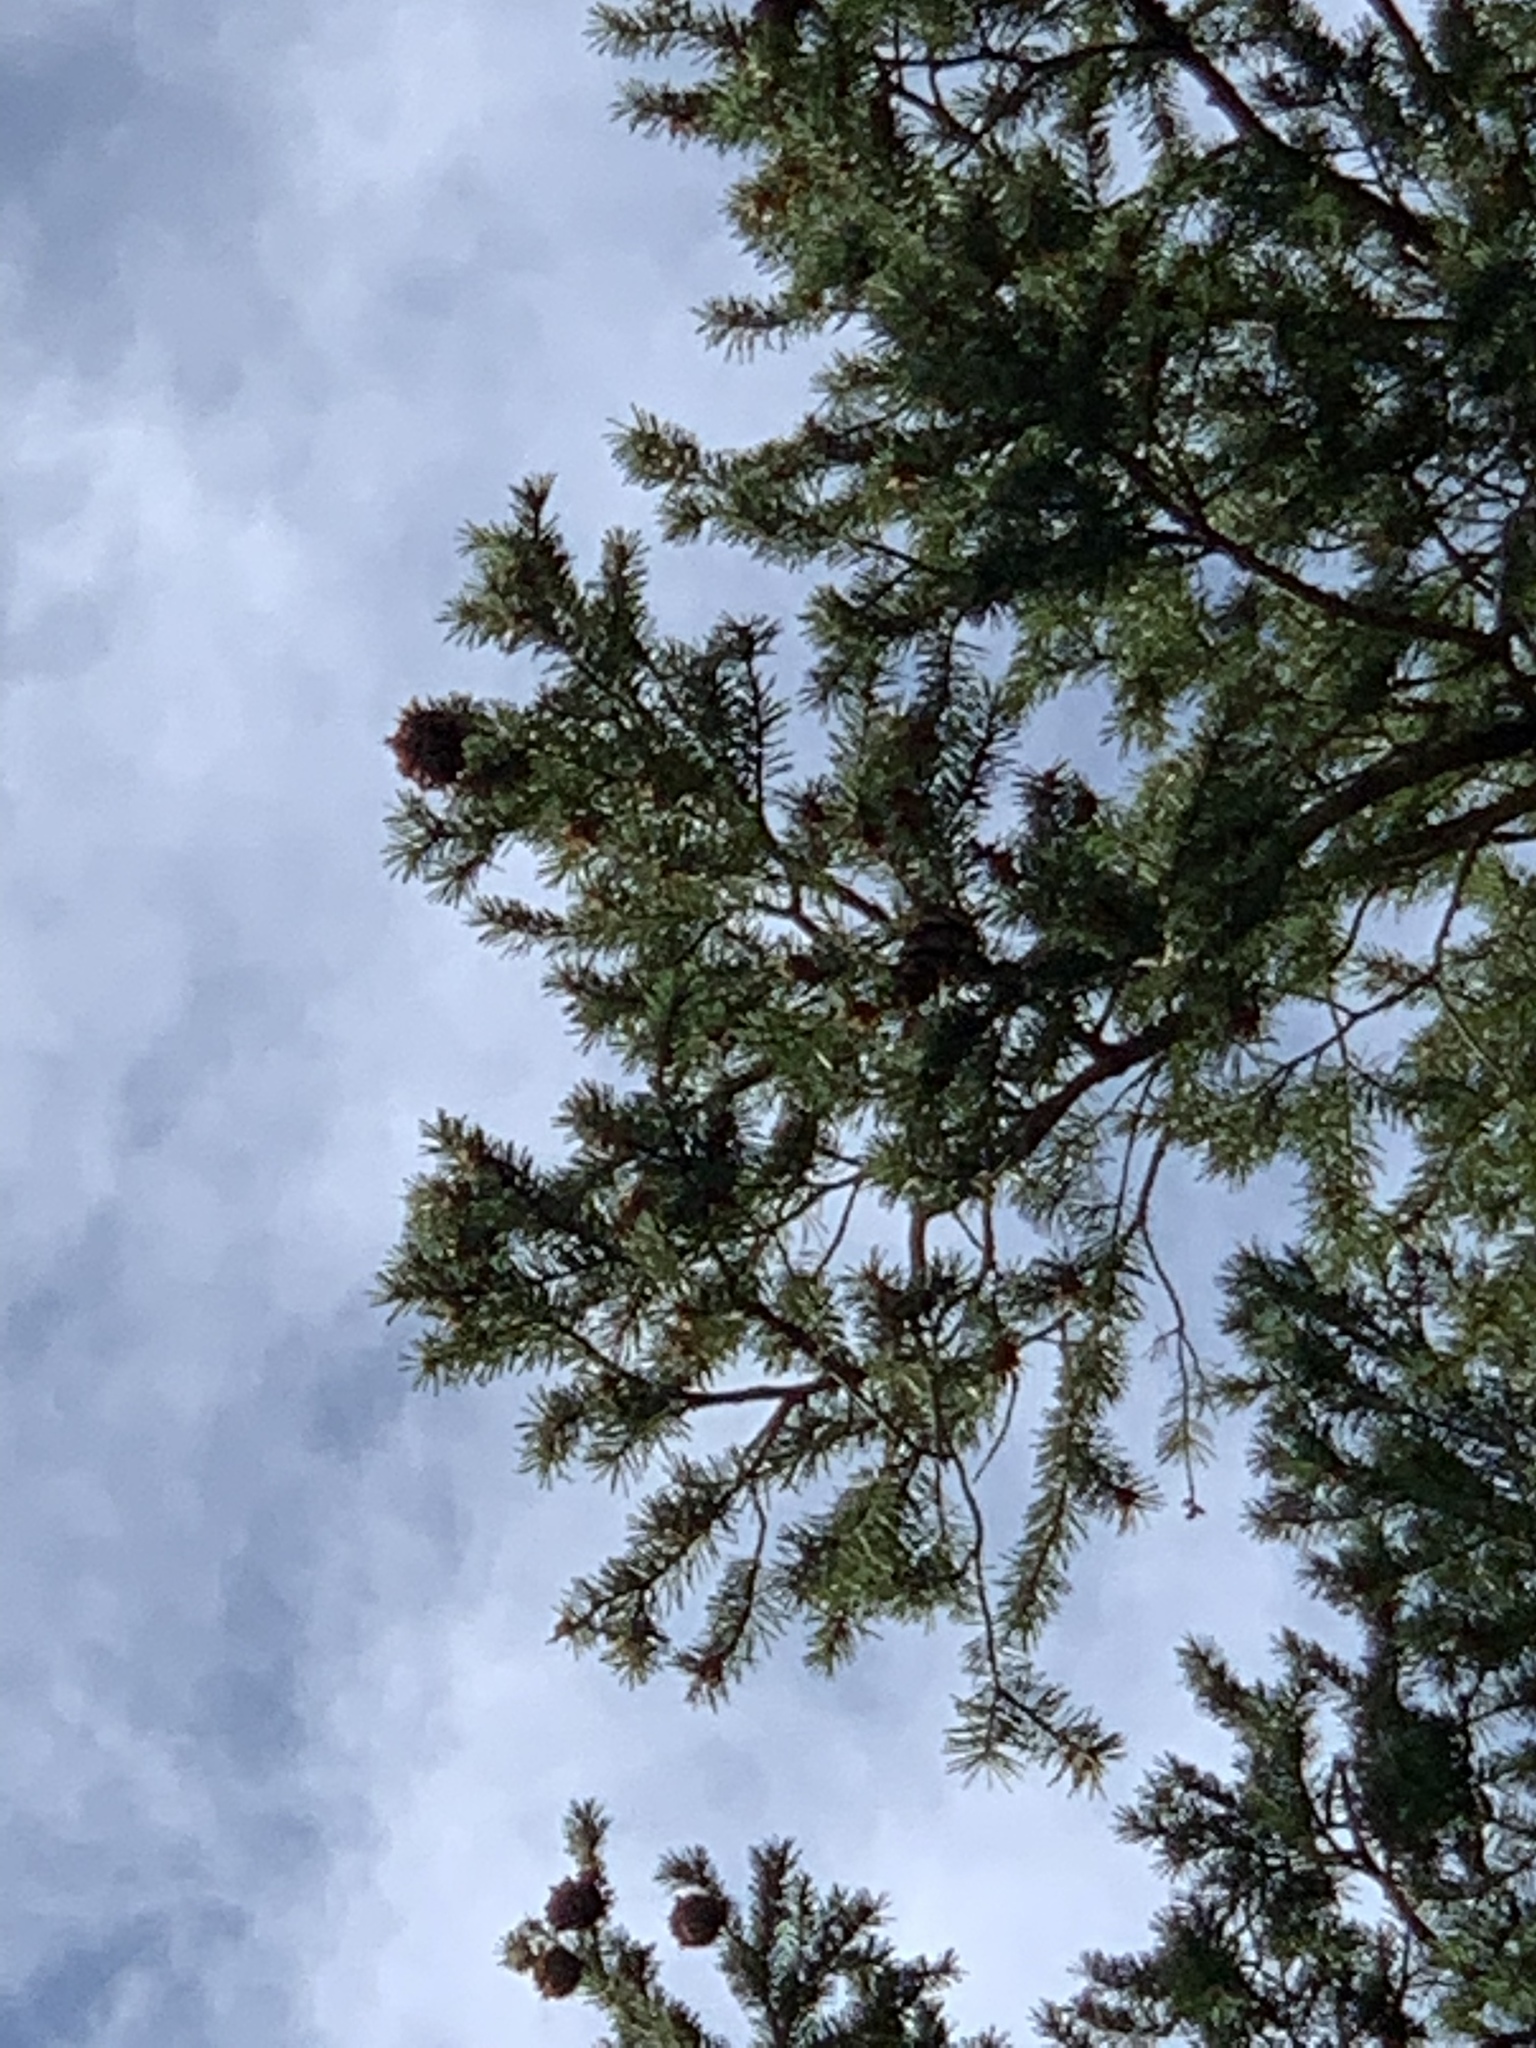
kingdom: Plantae
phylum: Tracheophyta
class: Pinopsida
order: Pinales
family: Pinaceae
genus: Pseudotsuga
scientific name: Pseudotsuga menziesii
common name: Douglas fir
